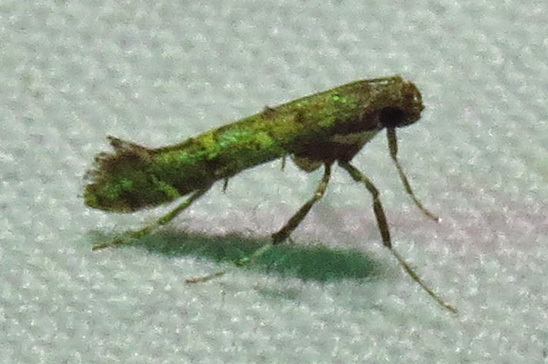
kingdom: Animalia
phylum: Arthropoda
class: Insecta
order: Lepidoptera
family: Gracillariidae
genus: Caloptilia
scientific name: Caloptilia triadicae
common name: Tallow leaf roller
